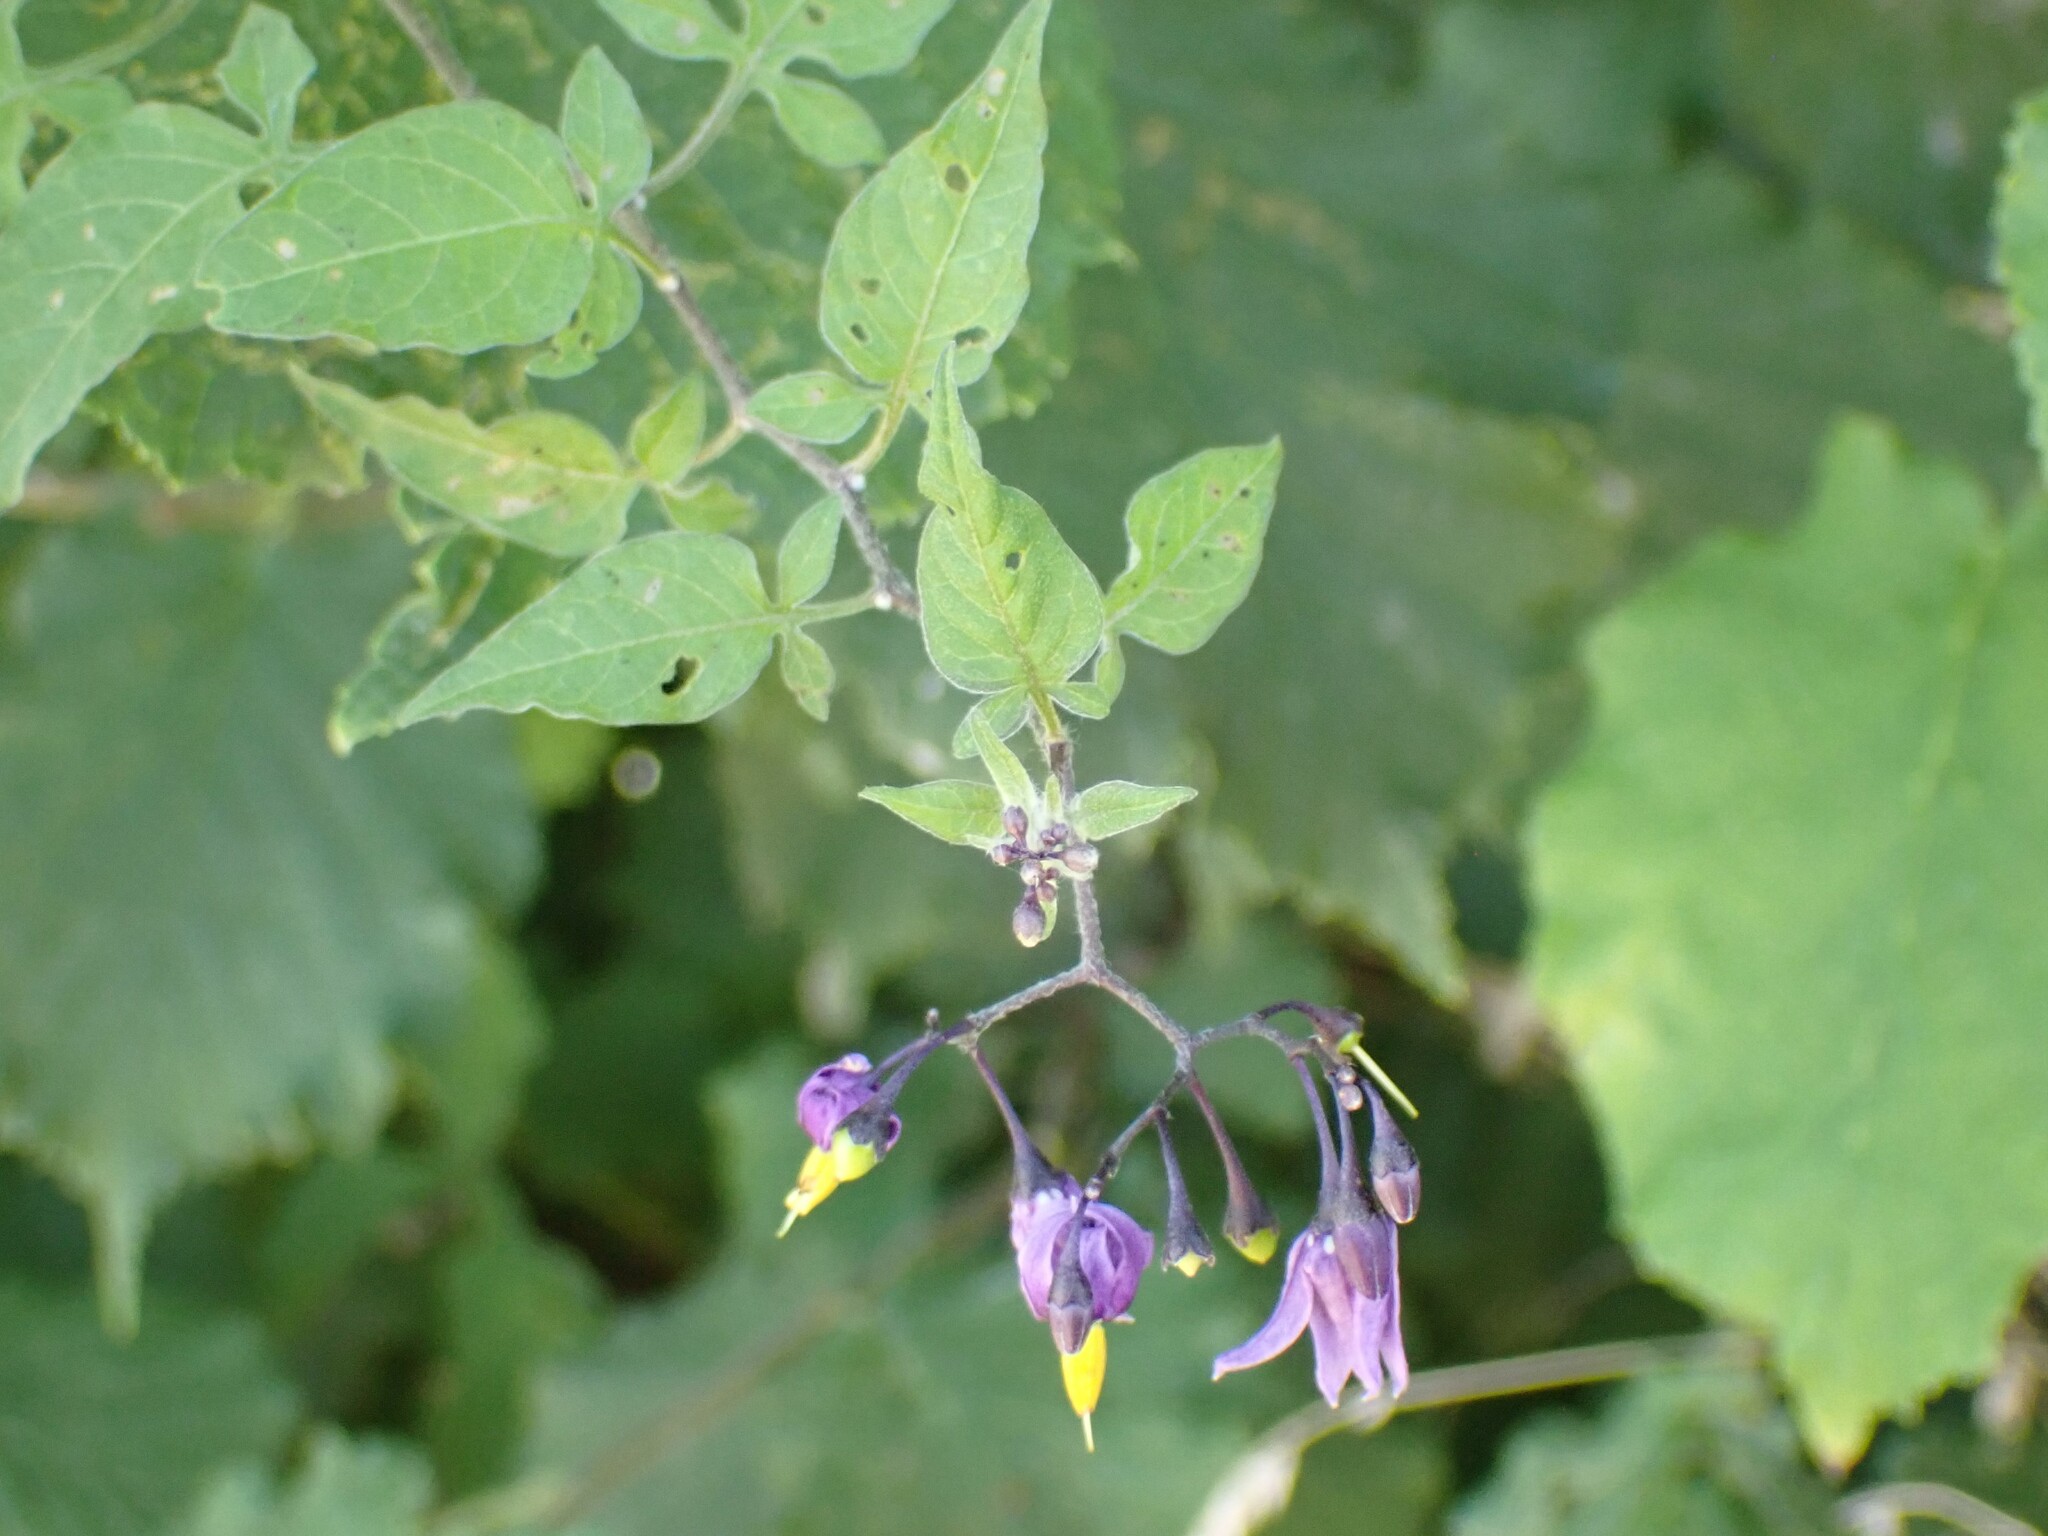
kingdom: Plantae
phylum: Tracheophyta
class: Magnoliopsida
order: Solanales
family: Solanaceae
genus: Solanum
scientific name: Solanum dulcamara
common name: Climbing nightshade
